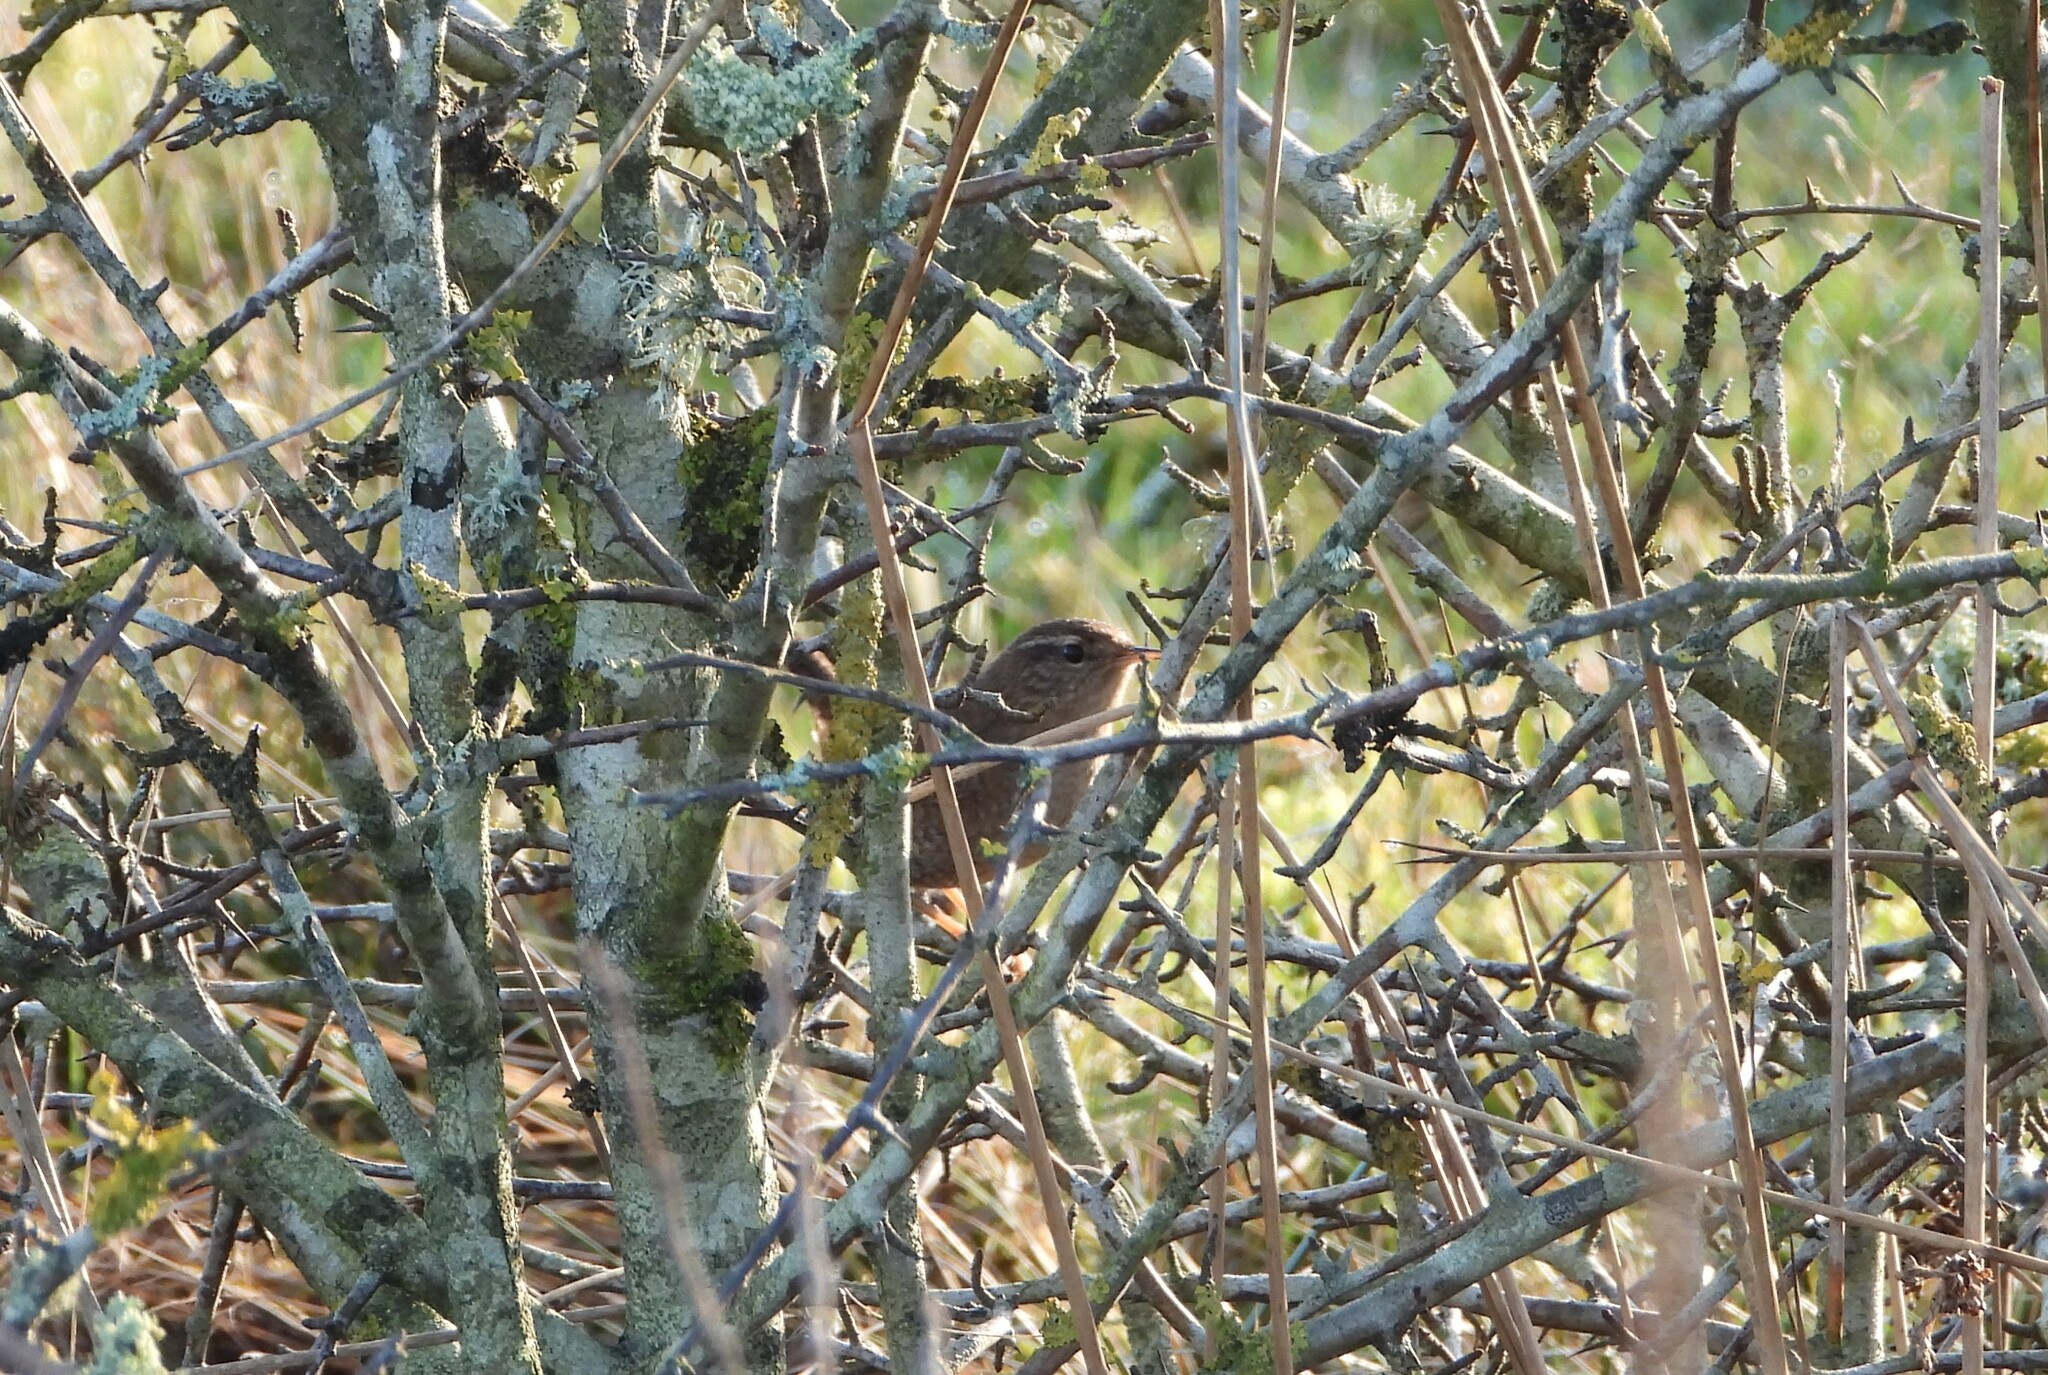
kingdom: Animalia
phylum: Chordata
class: Aves
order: Passeriformes
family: Troglodytidae
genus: Troglodytes
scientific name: Troglodytes troglodytes
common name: Eurasian wren
